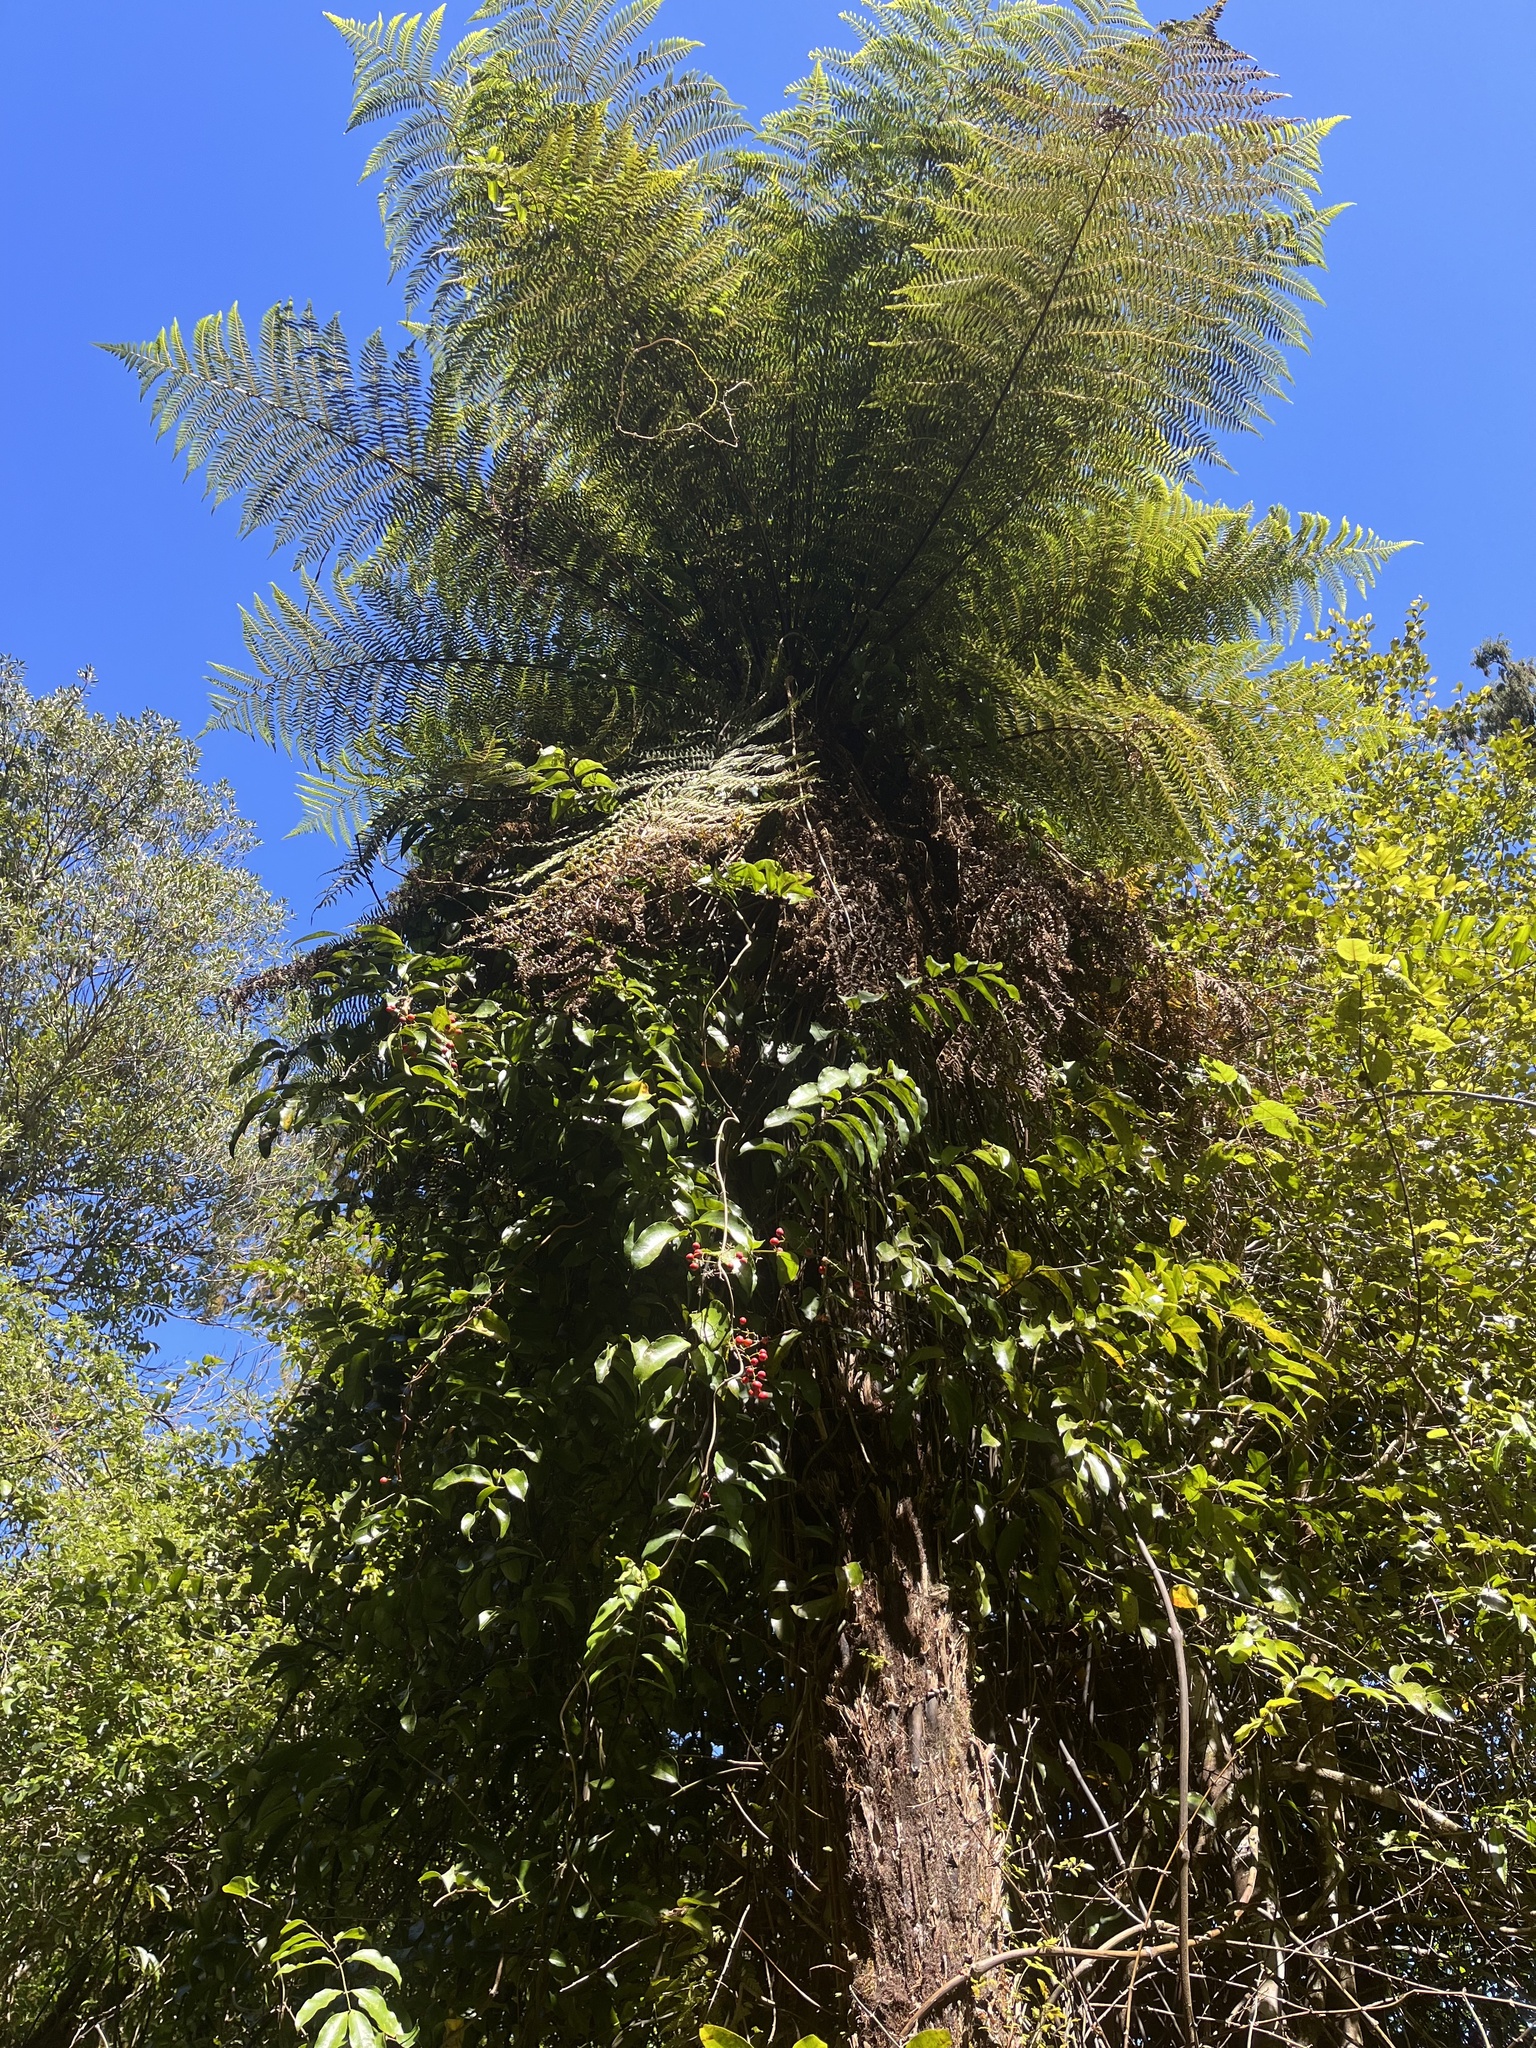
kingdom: Plantae
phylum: Tracheophyta
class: Liliopsida
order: Liliales
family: Ripogonaceae
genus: Ripogonum
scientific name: Ripogonum scandens
